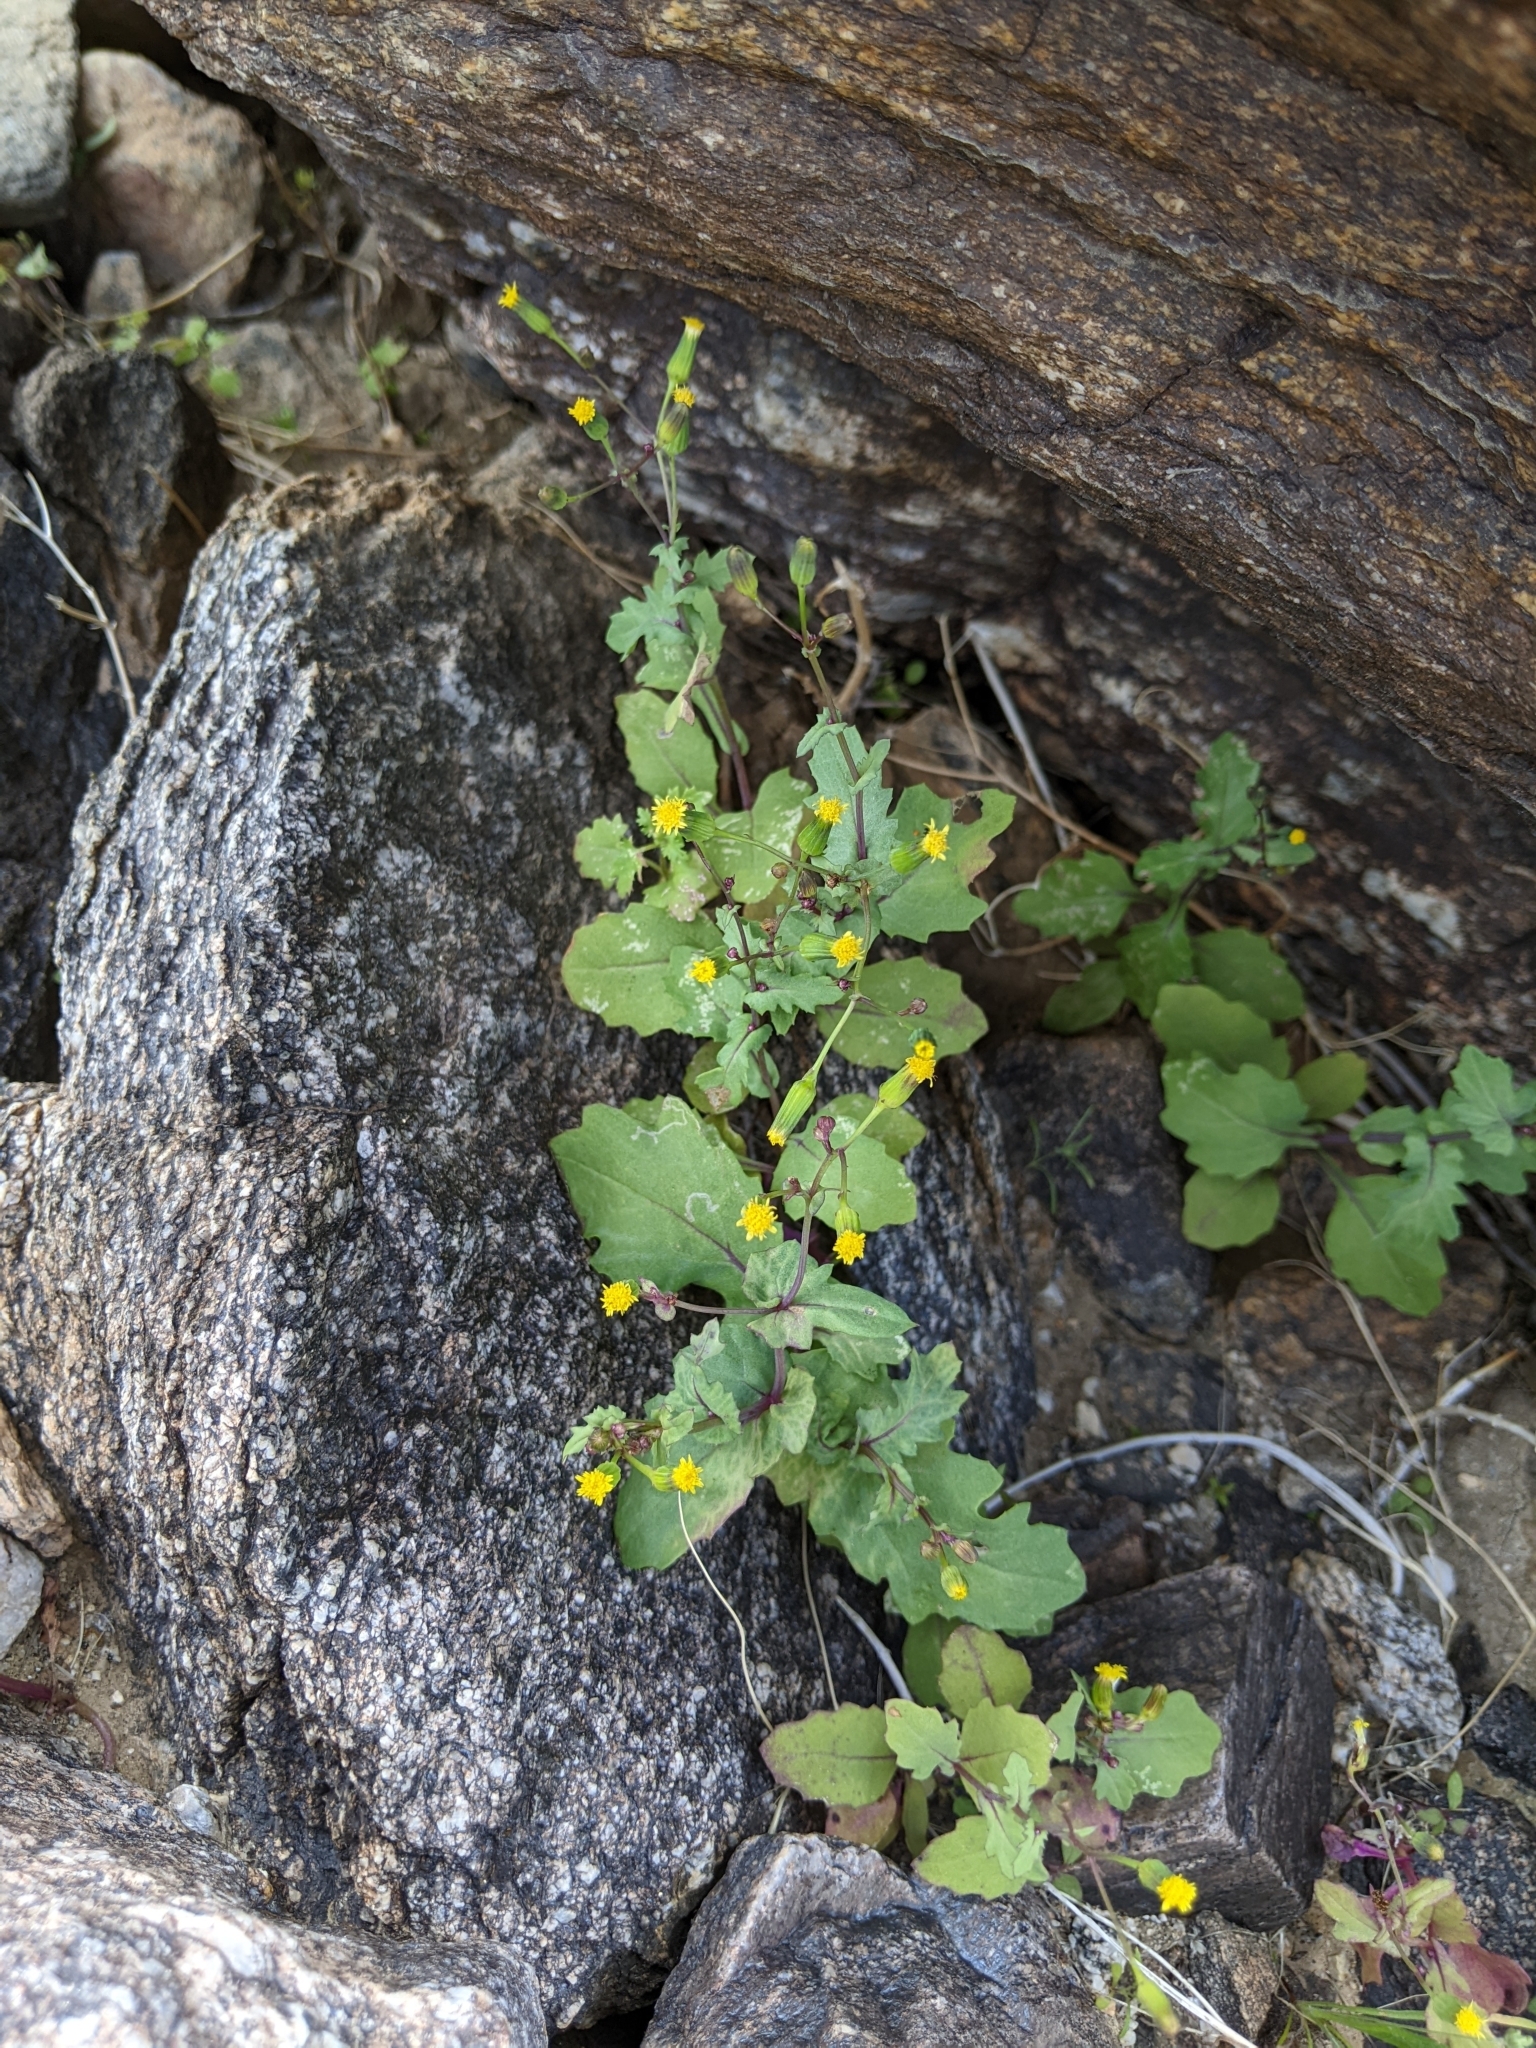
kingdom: Plantae
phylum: Tracheophyta
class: Magnoliopsida
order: Asterales
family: Asteraceae
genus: Senecio
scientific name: Senecio mohavensis
